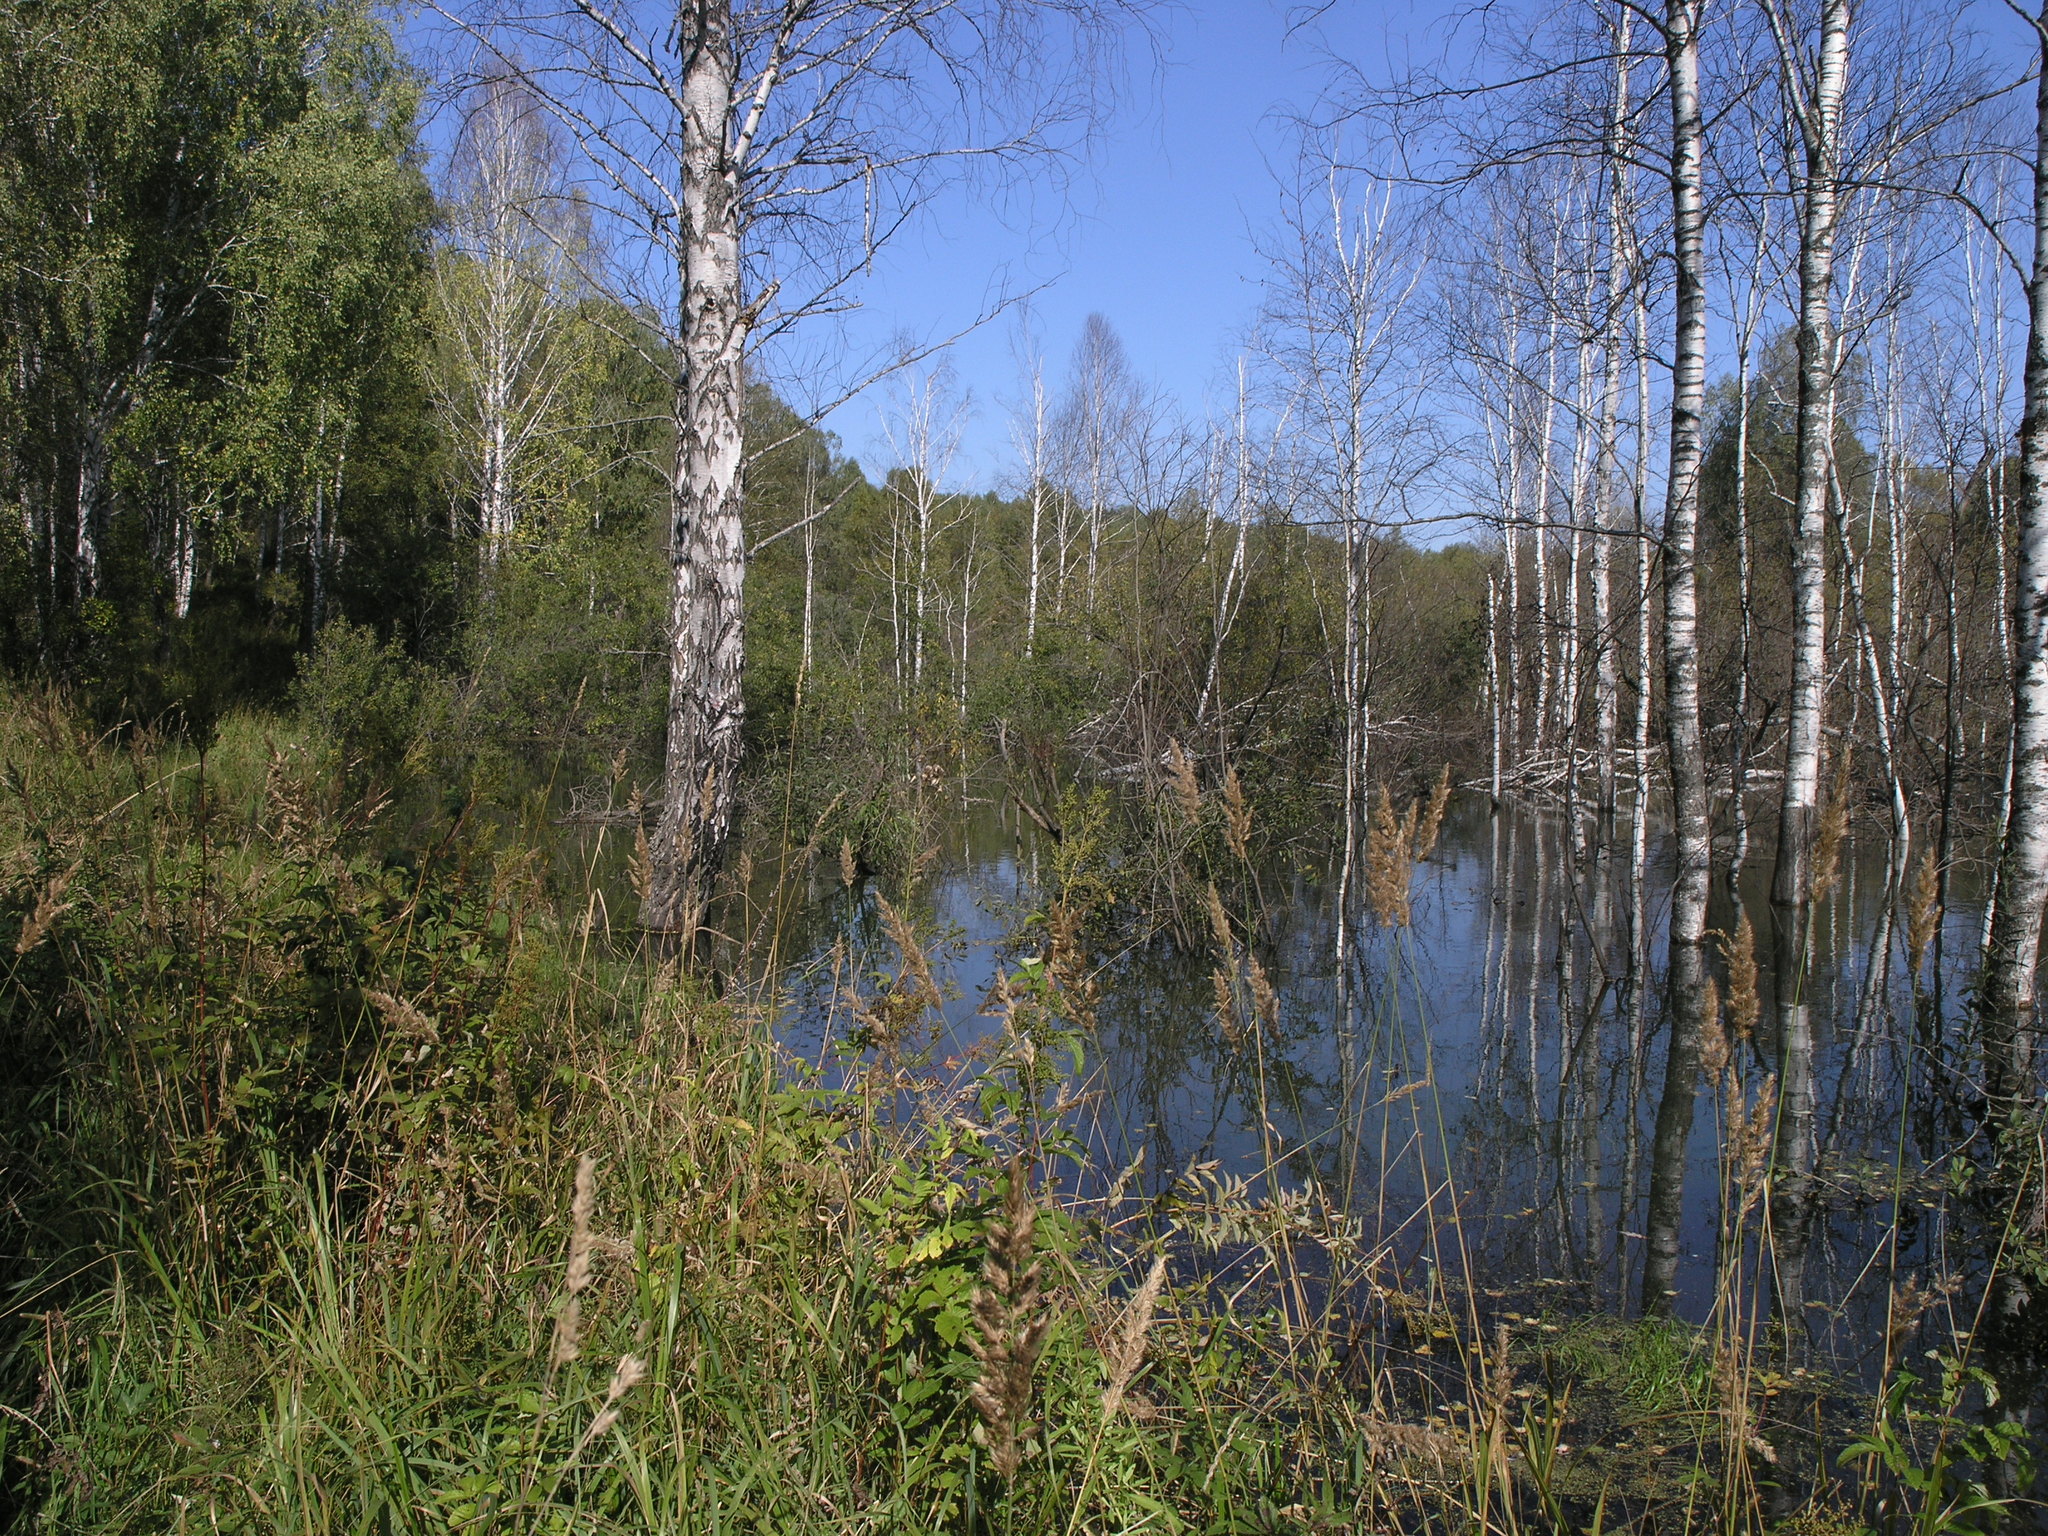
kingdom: Plantae
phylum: Tracheophyta
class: Magnoliopsida
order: Fagales
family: Betulaceae
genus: Betula
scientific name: Betula pubescens
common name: Downy birch
